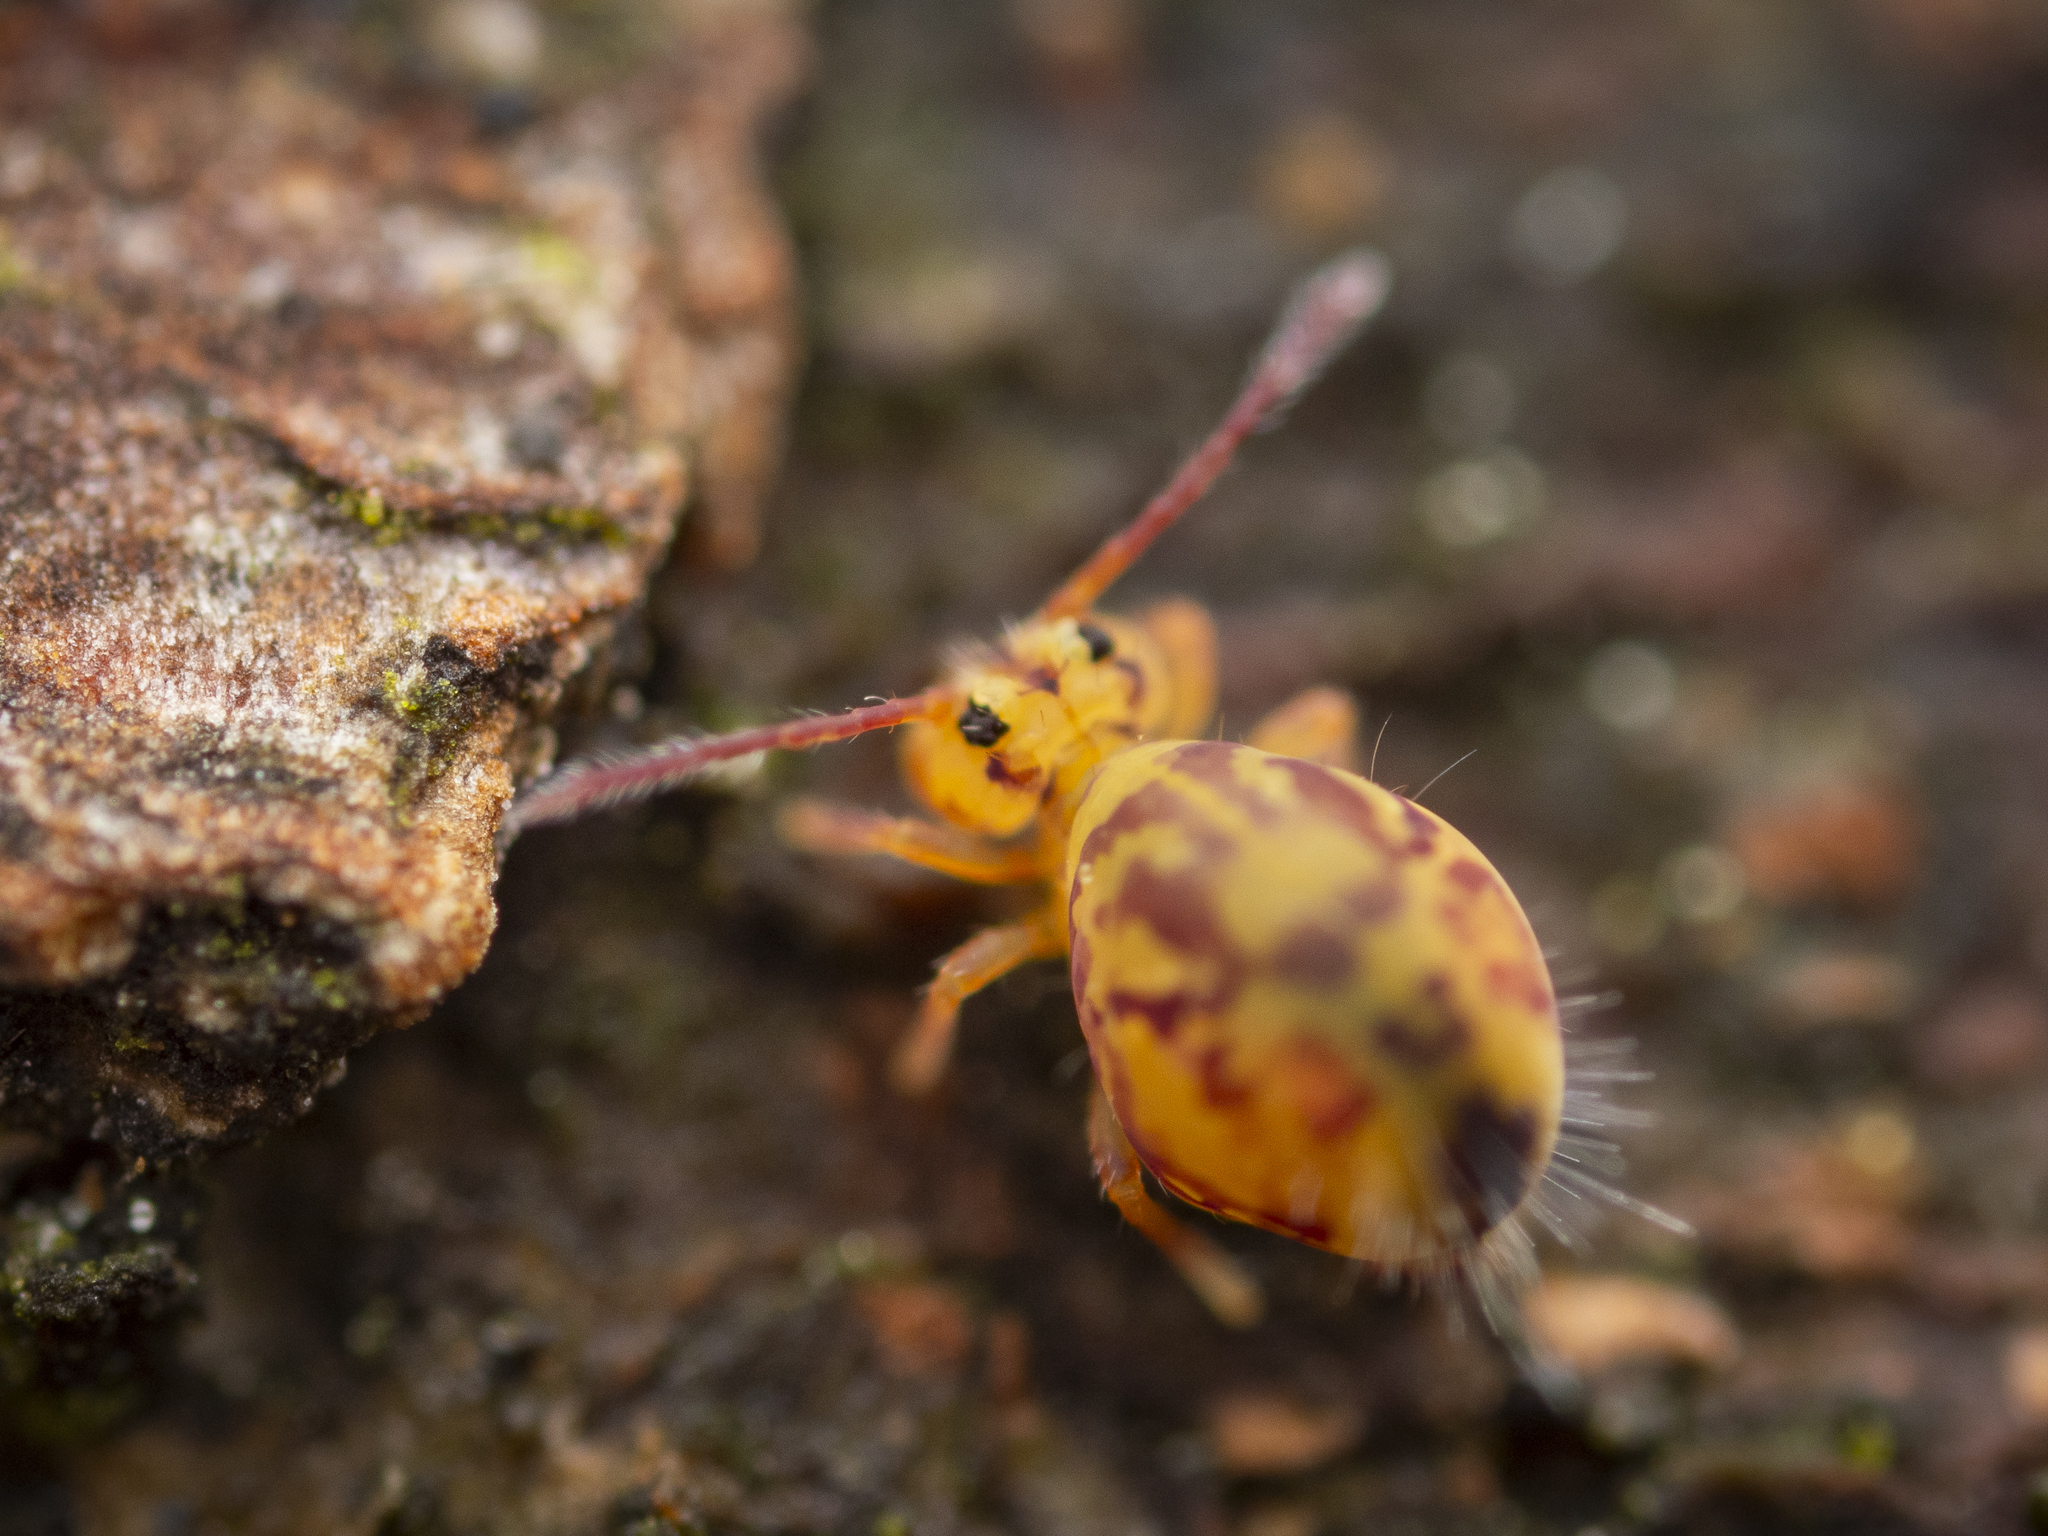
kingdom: Animalia
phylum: Arthropoda
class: Collembola
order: Symphypleona
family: Dicyrtomidae
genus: Dicyrtomina
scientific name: Dicyrtomina ornata
